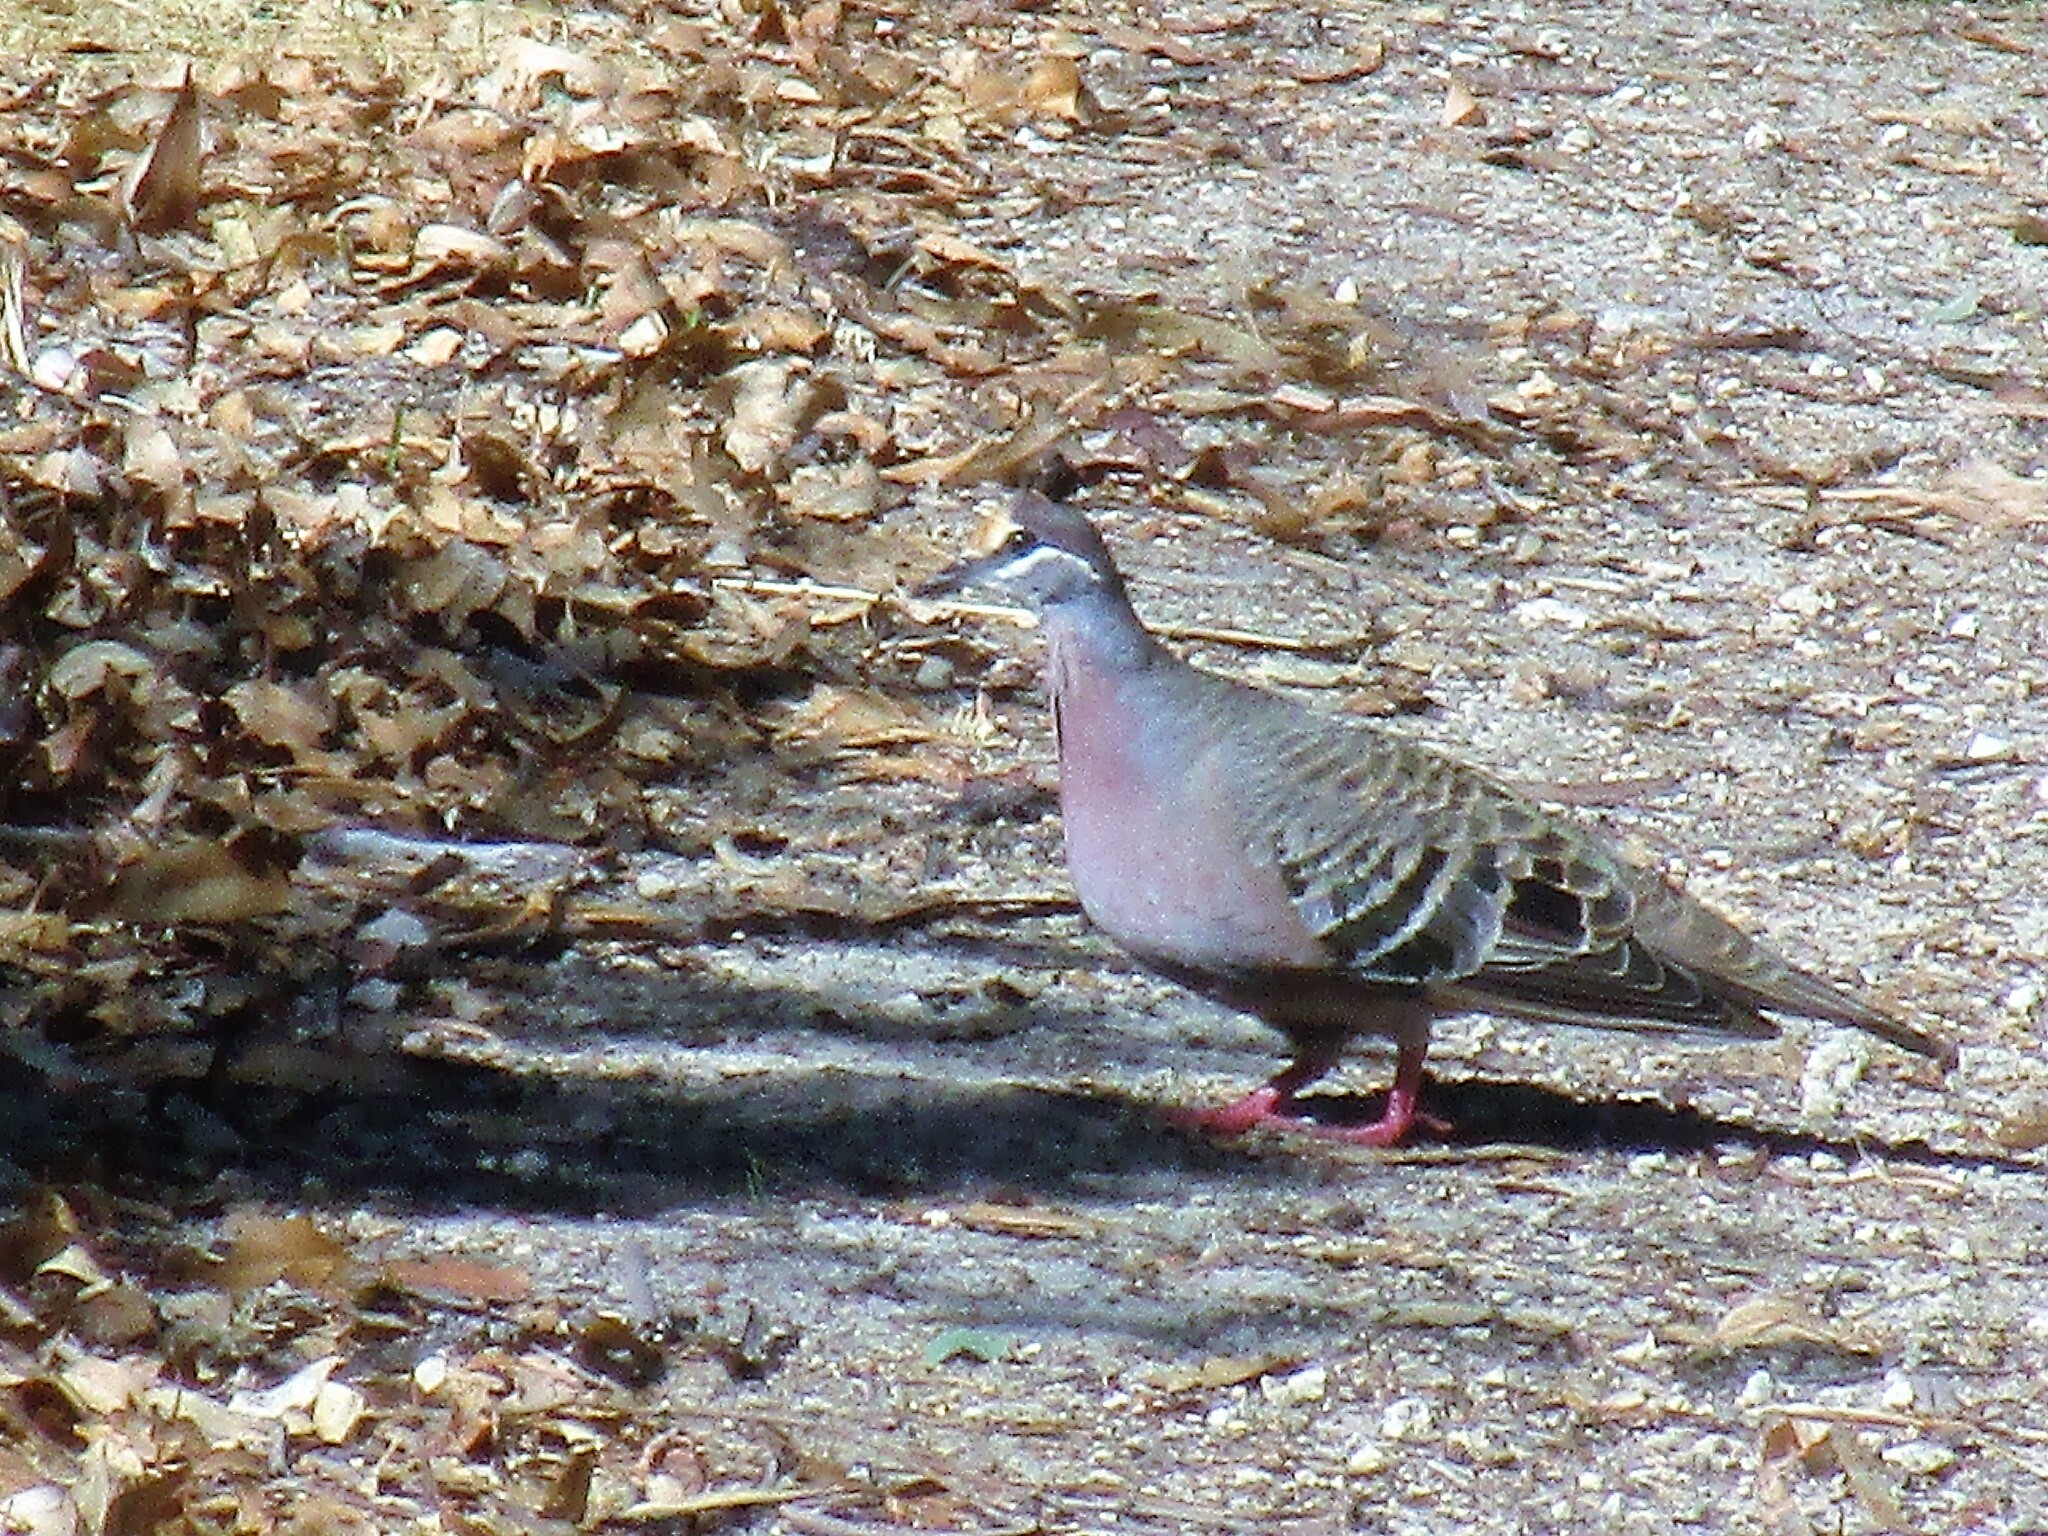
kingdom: Animalia
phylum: Chordata
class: Aves
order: Columbiformes
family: Columbidae
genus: Phaps
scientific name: Phaps chalcoptera
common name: Common bronzewing
